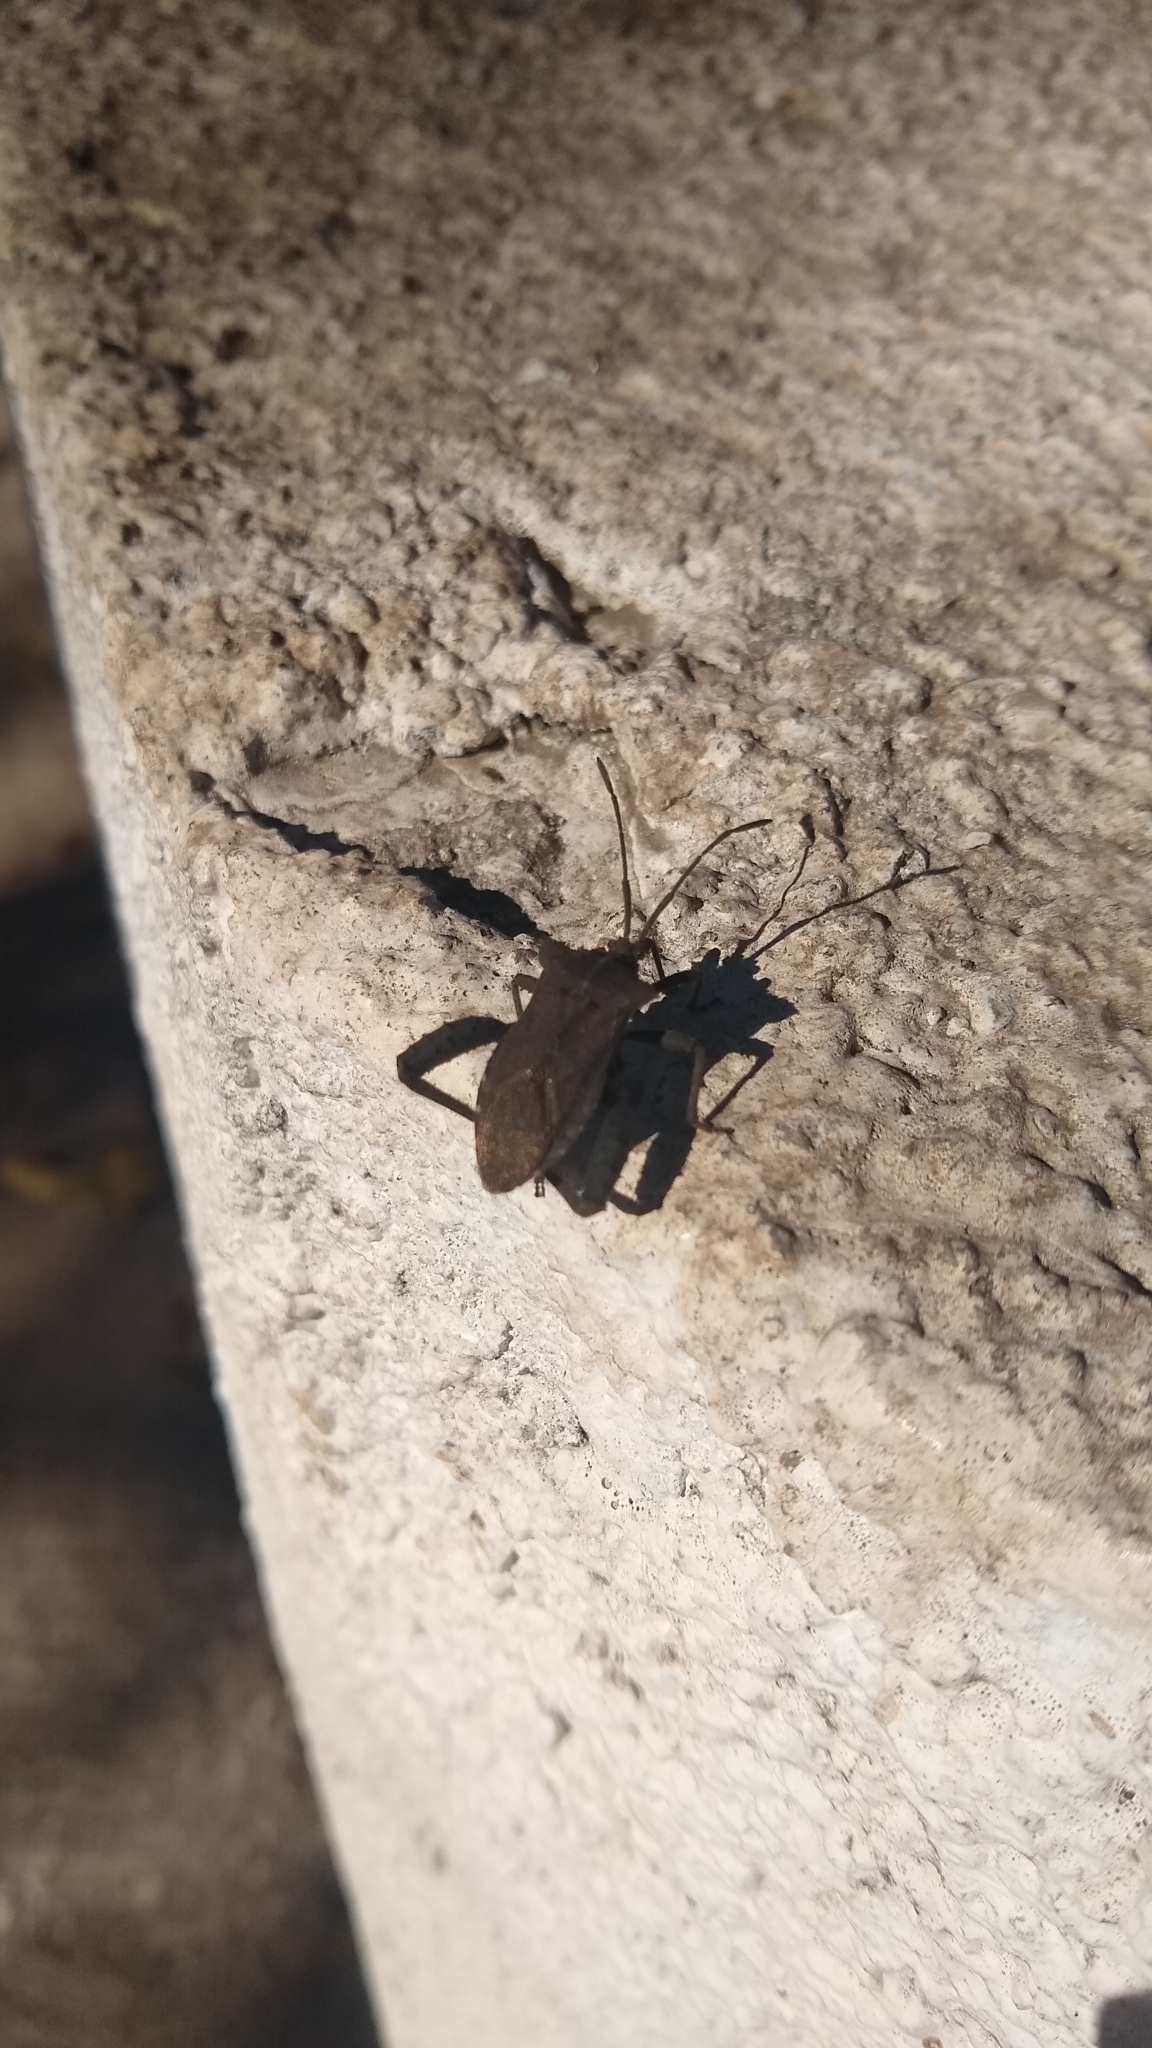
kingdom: Animalia
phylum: Arthropoda
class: Insecta
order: Hemiptera
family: Coreidae
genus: Camptischium
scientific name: Camptischium clavipes
